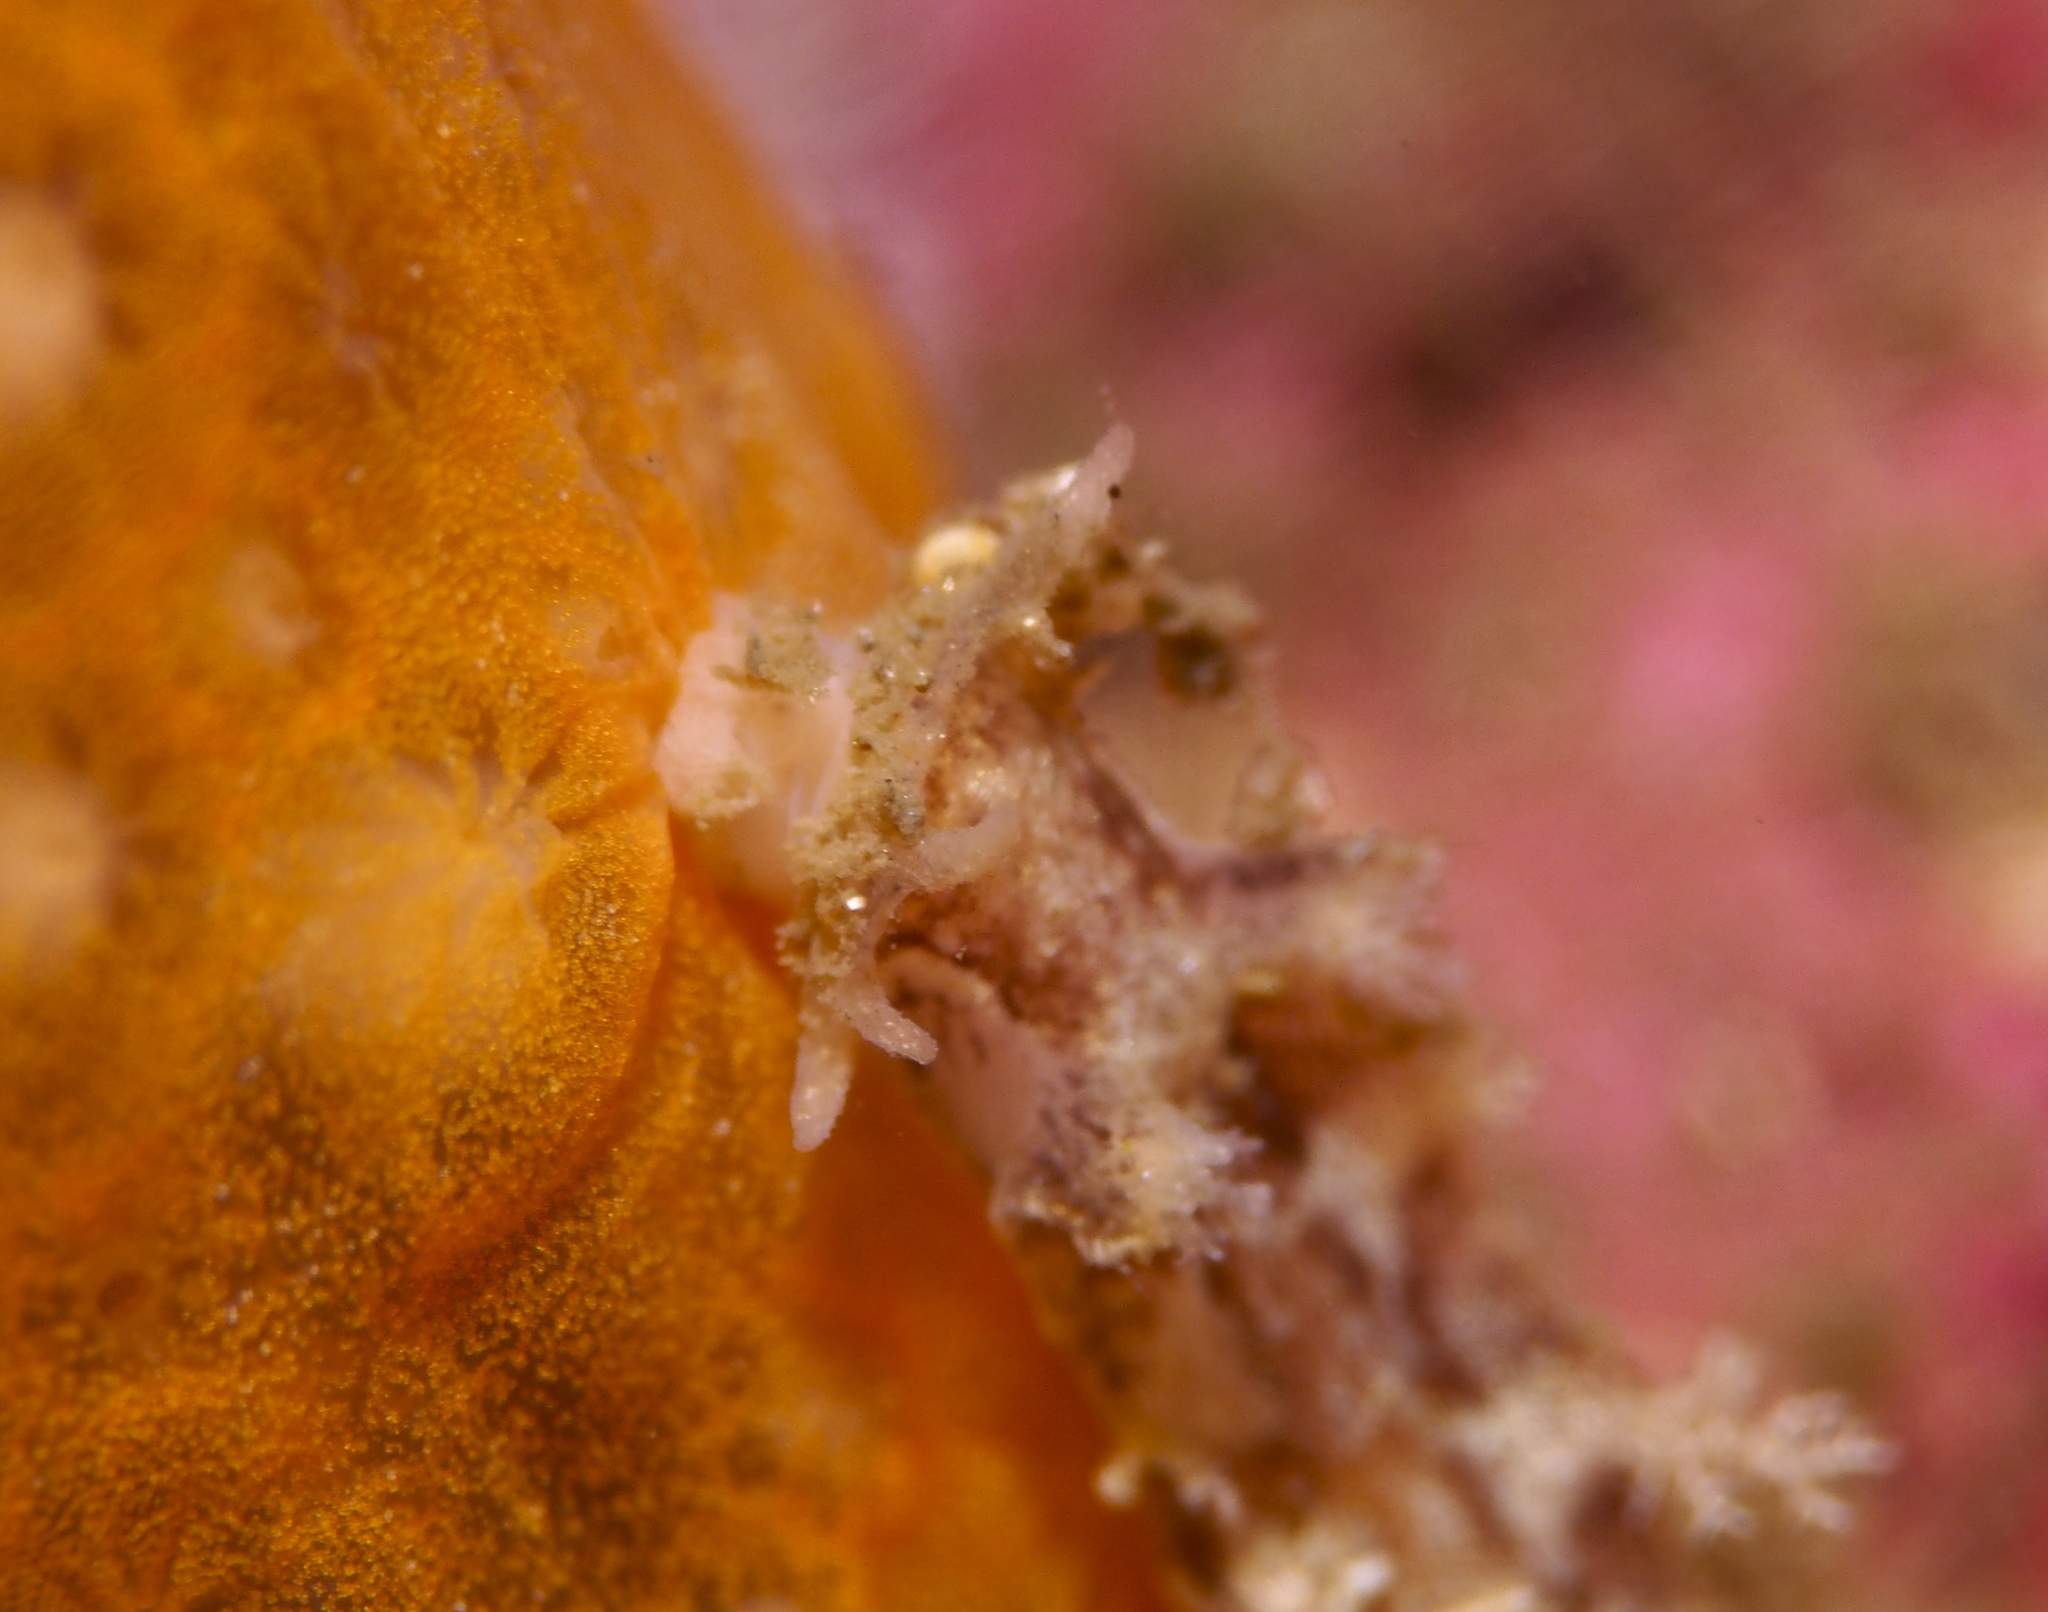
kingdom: Animalia
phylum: Mollusca
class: Gastropoda
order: Nudibranchia
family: Tritoniidae
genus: Duvaucelia
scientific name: Duvaucelia plebeia
